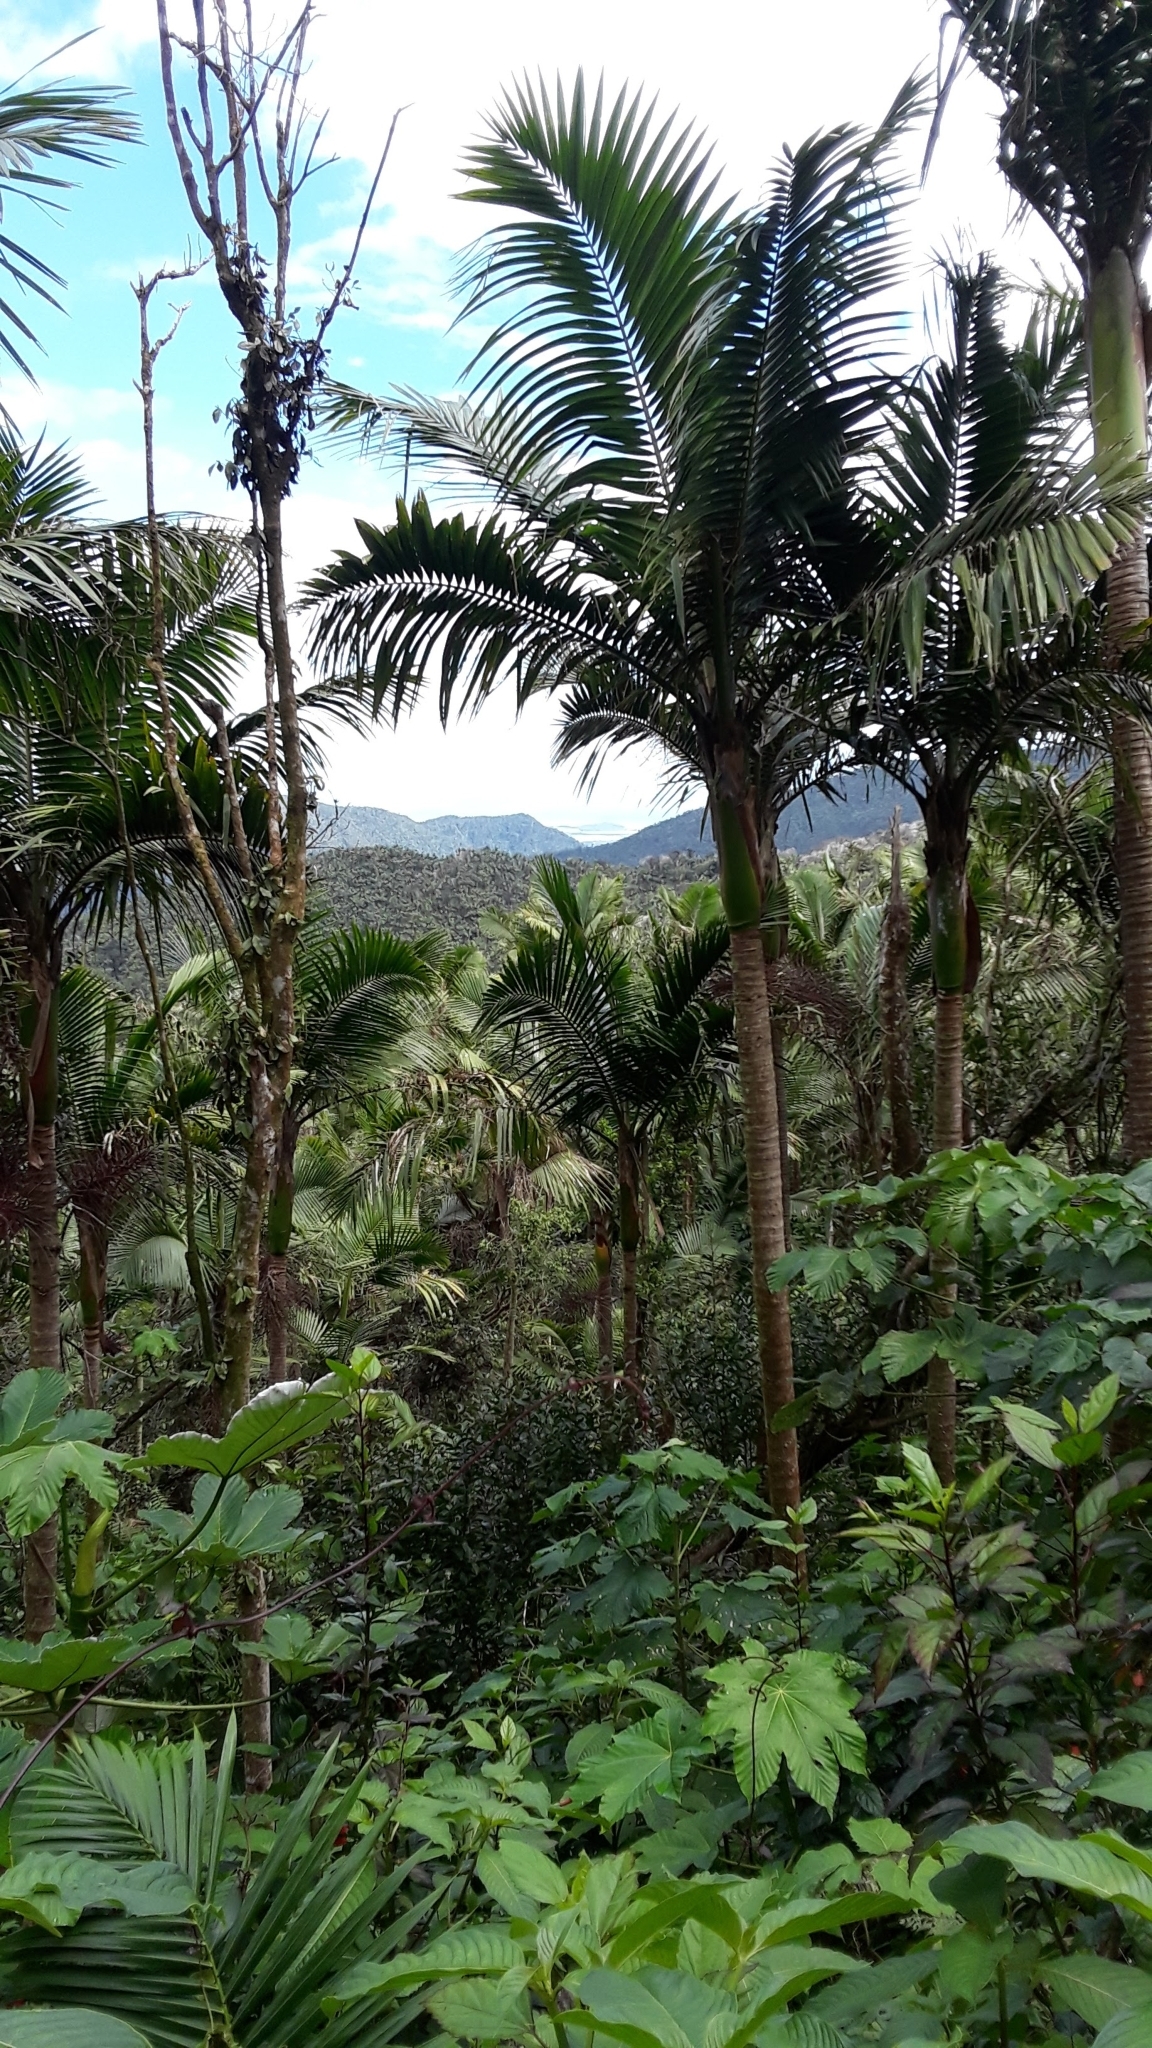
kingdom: Plantae
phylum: Tracheophyta
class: Liliopsida
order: Arecales
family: Arecaceae
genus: Prestoea
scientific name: Prestoea acuminata
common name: Sierran palm
